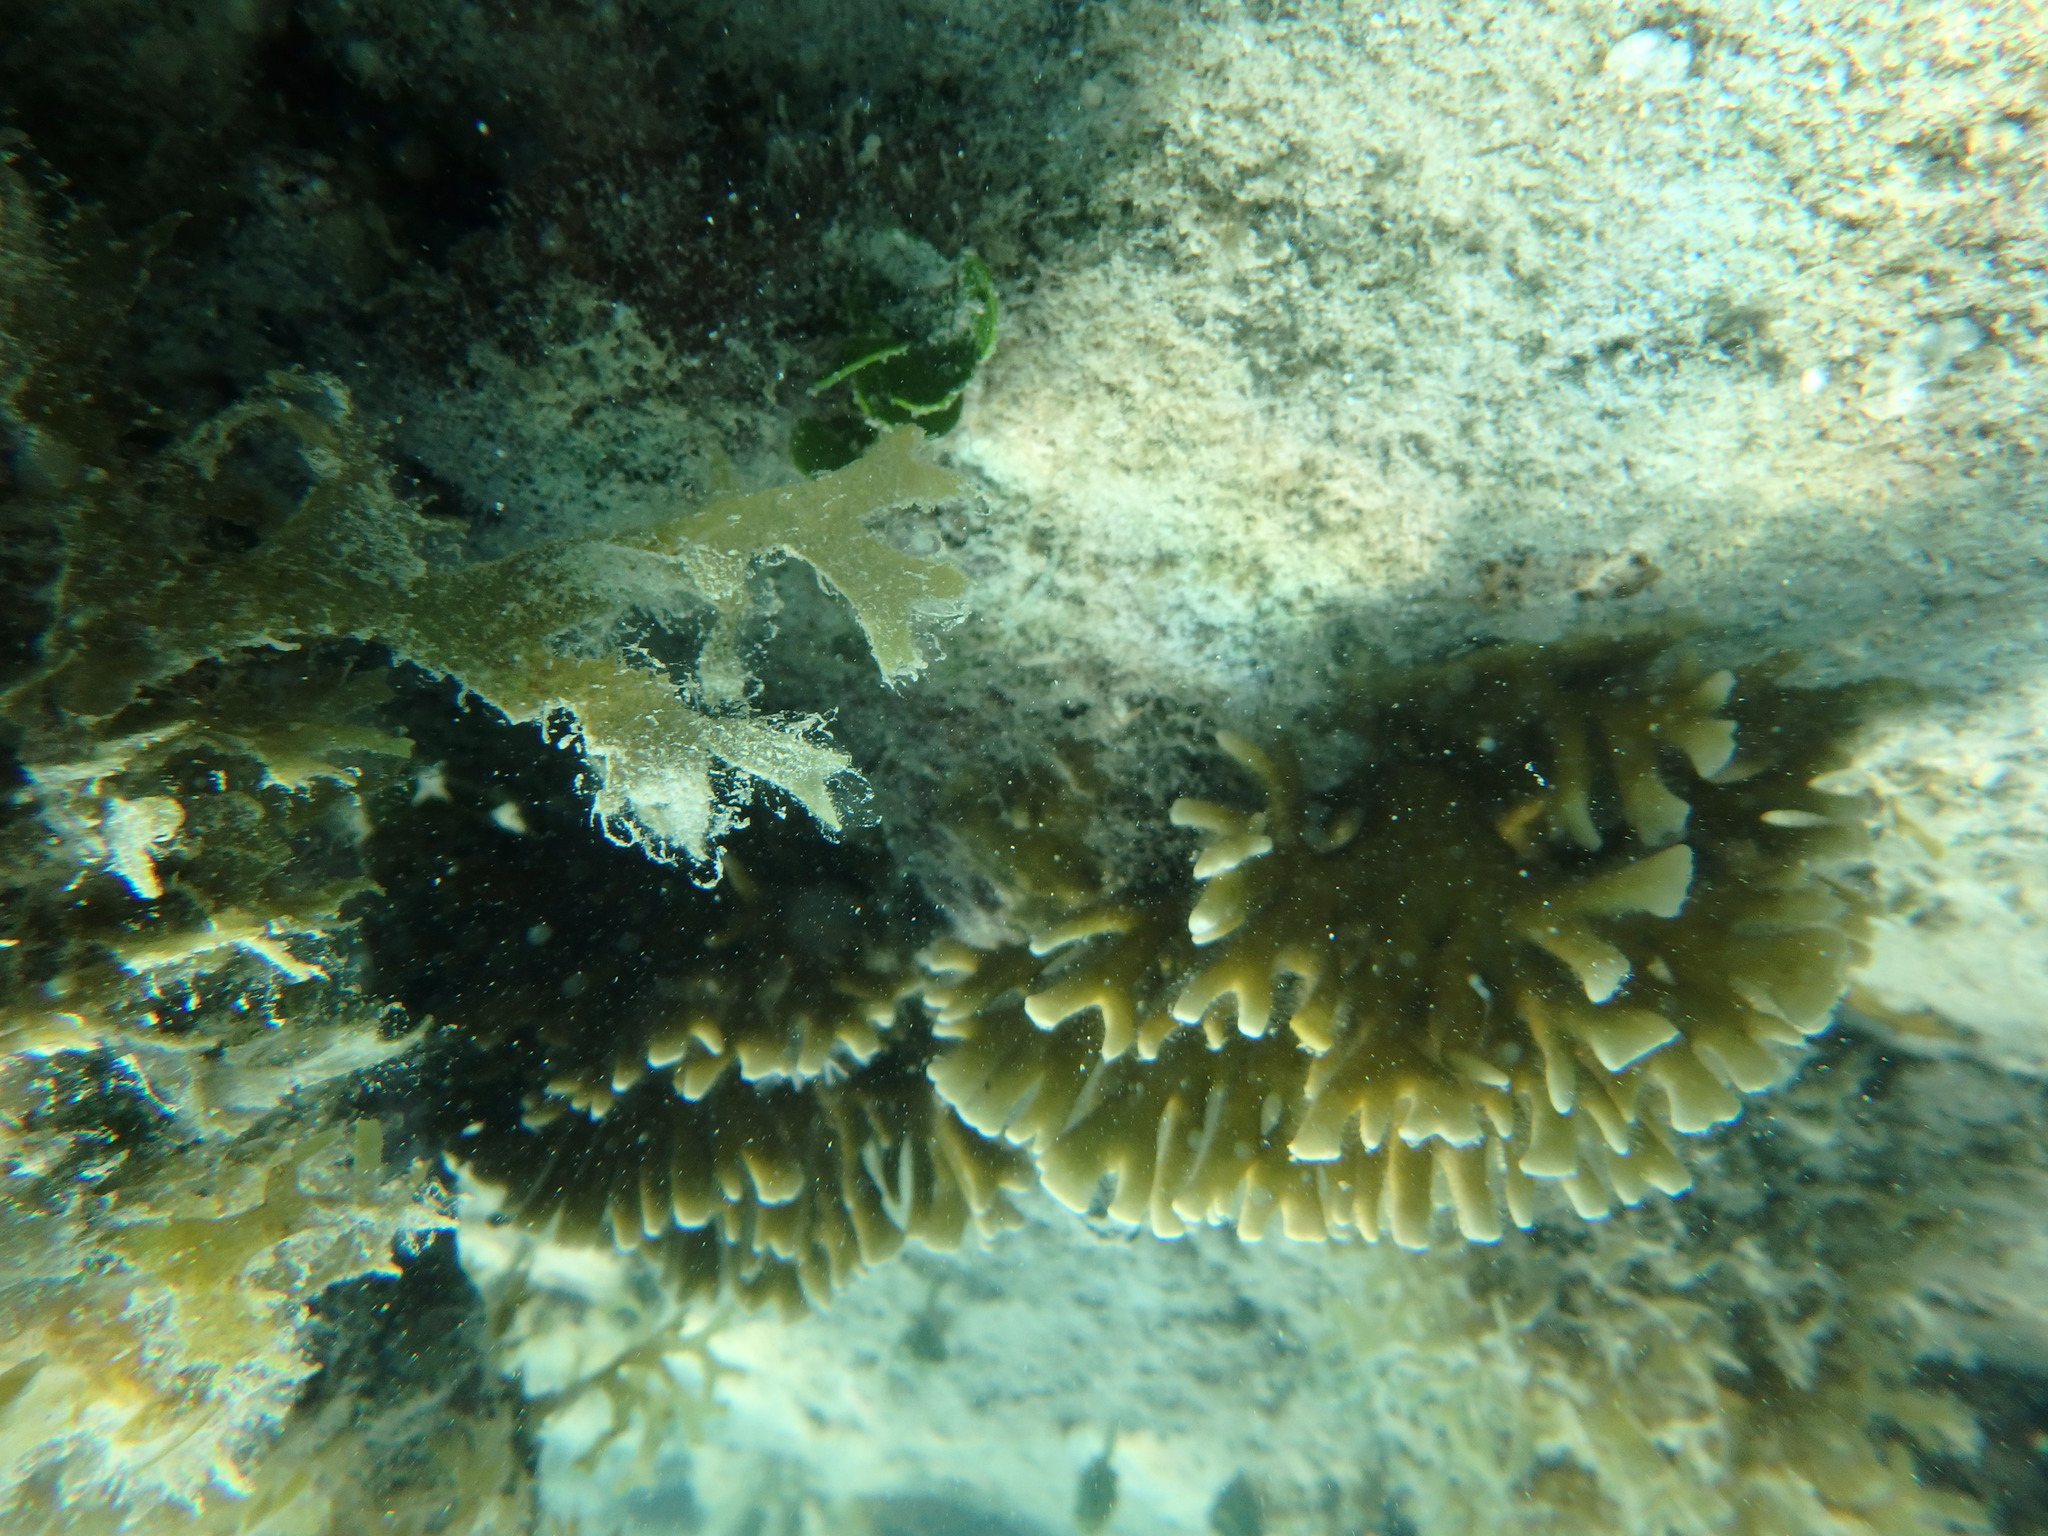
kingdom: Animalia
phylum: Cnidaria
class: Hydrozoa
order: Anthoathecata
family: Milleporidae
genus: Millepora
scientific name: Millepora alcicornis
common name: Branching fire coral
